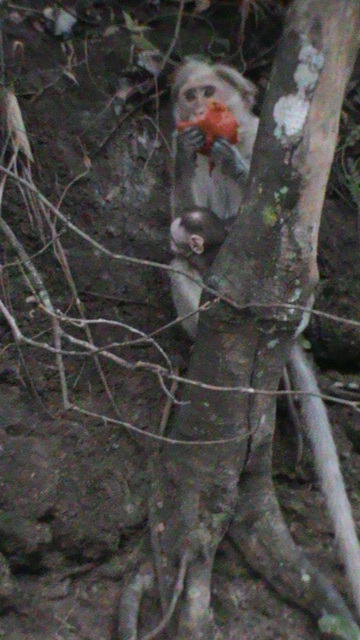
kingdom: Animalia
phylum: Chordata
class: Mammalia
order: Primates
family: Cercopithecidae
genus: Macaca
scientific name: Macaca radiata
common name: Bonnet macaque
